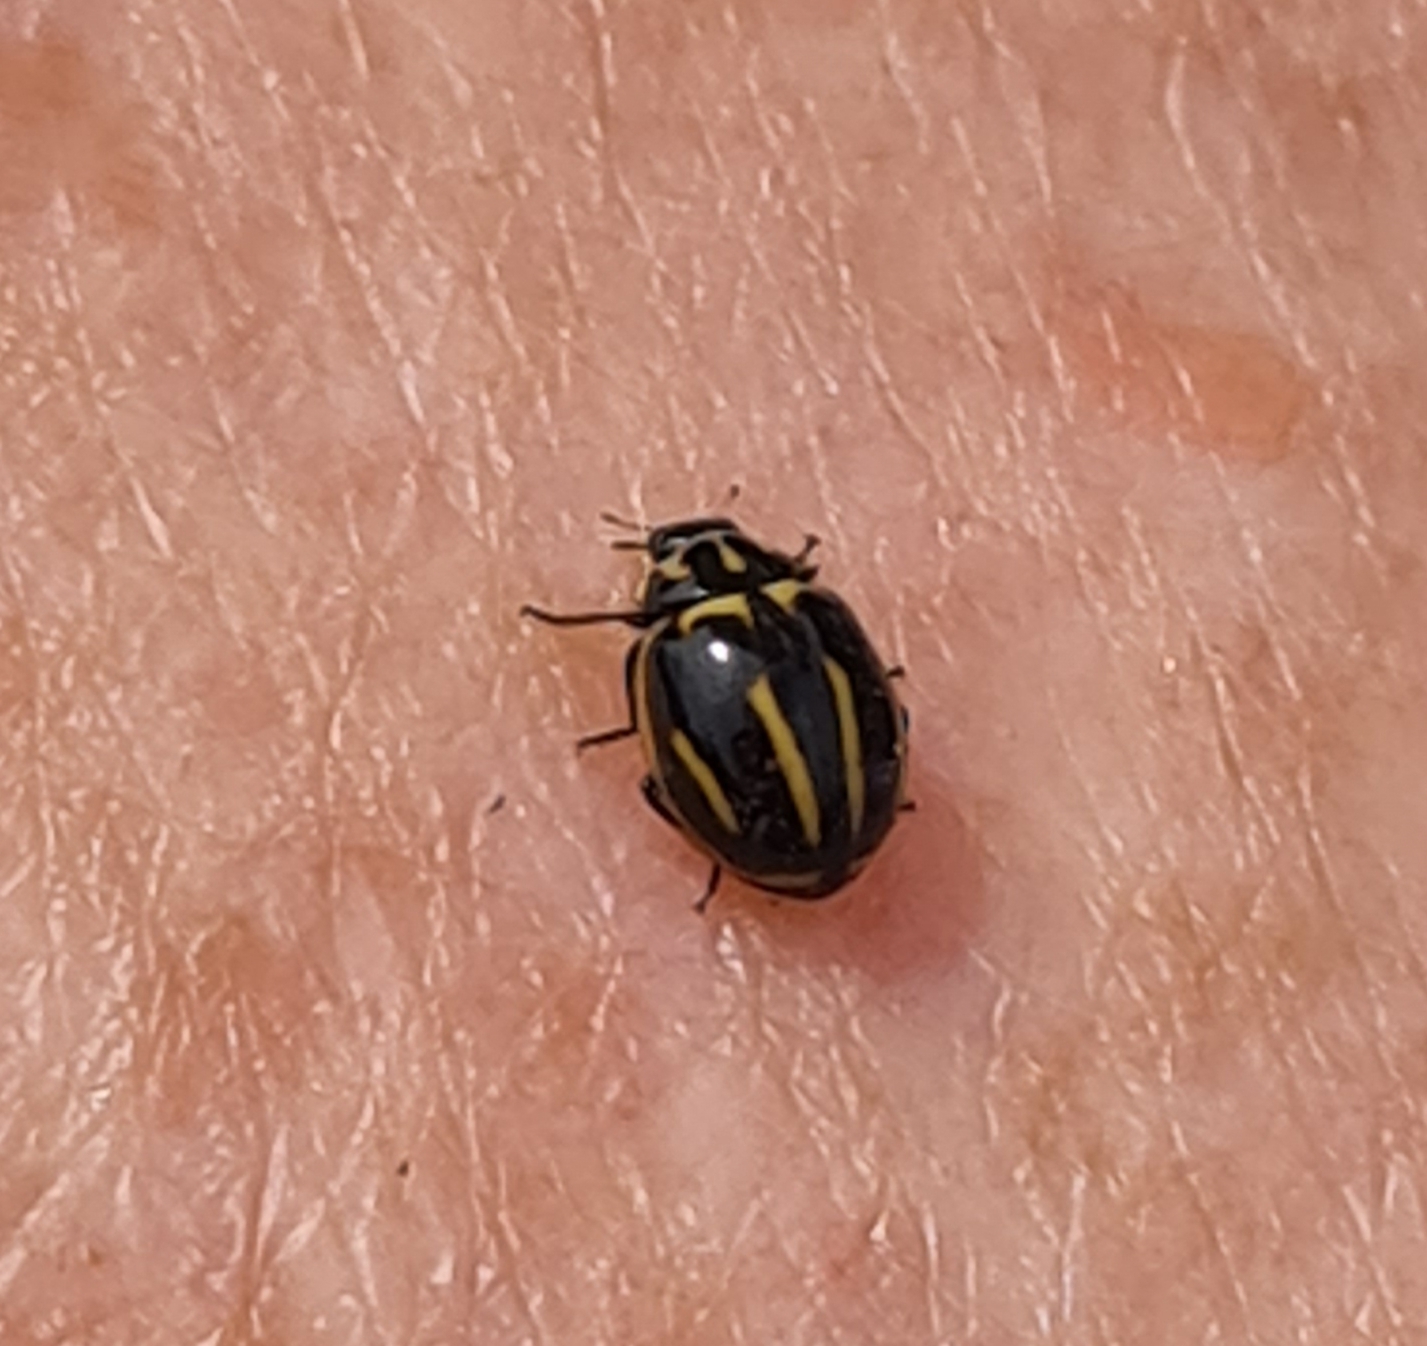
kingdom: Animalia
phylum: Arthropoda
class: Insecta
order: Coleoptera
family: Coccinellidae
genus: Micraspis
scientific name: Micraspis
